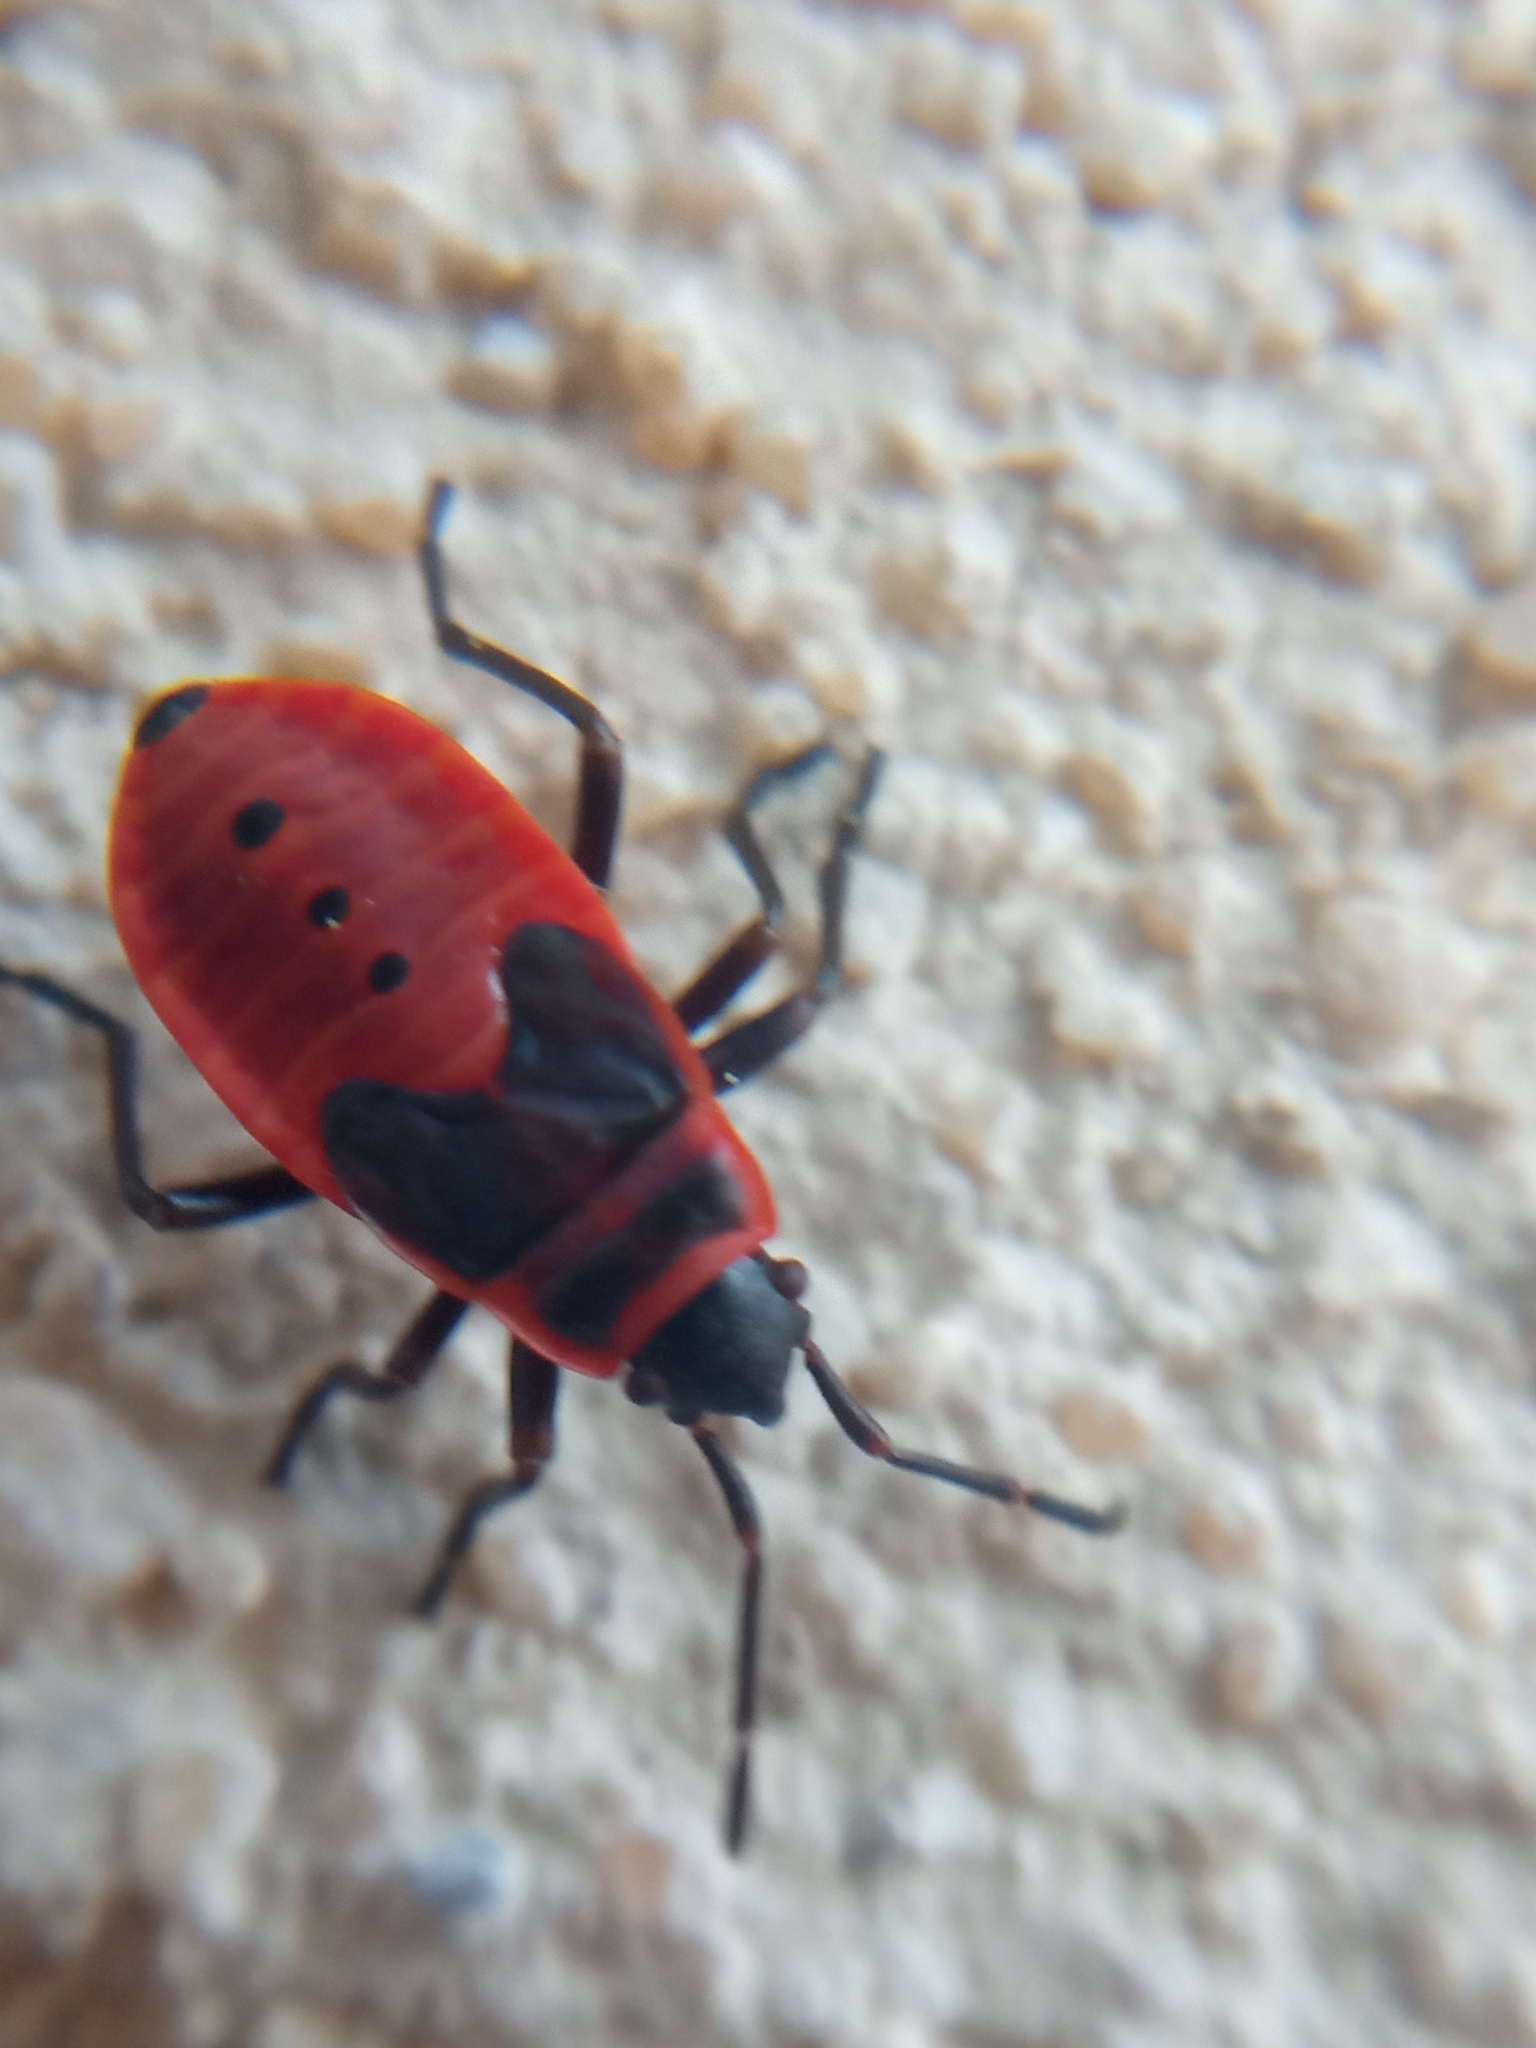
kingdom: Animalia
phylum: Arthropoda
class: Insecta
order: Hemiptera
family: Pyrrhocoridae
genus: Pyrrhocoris
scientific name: Pyrrhocoris apterus
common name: Firebug
